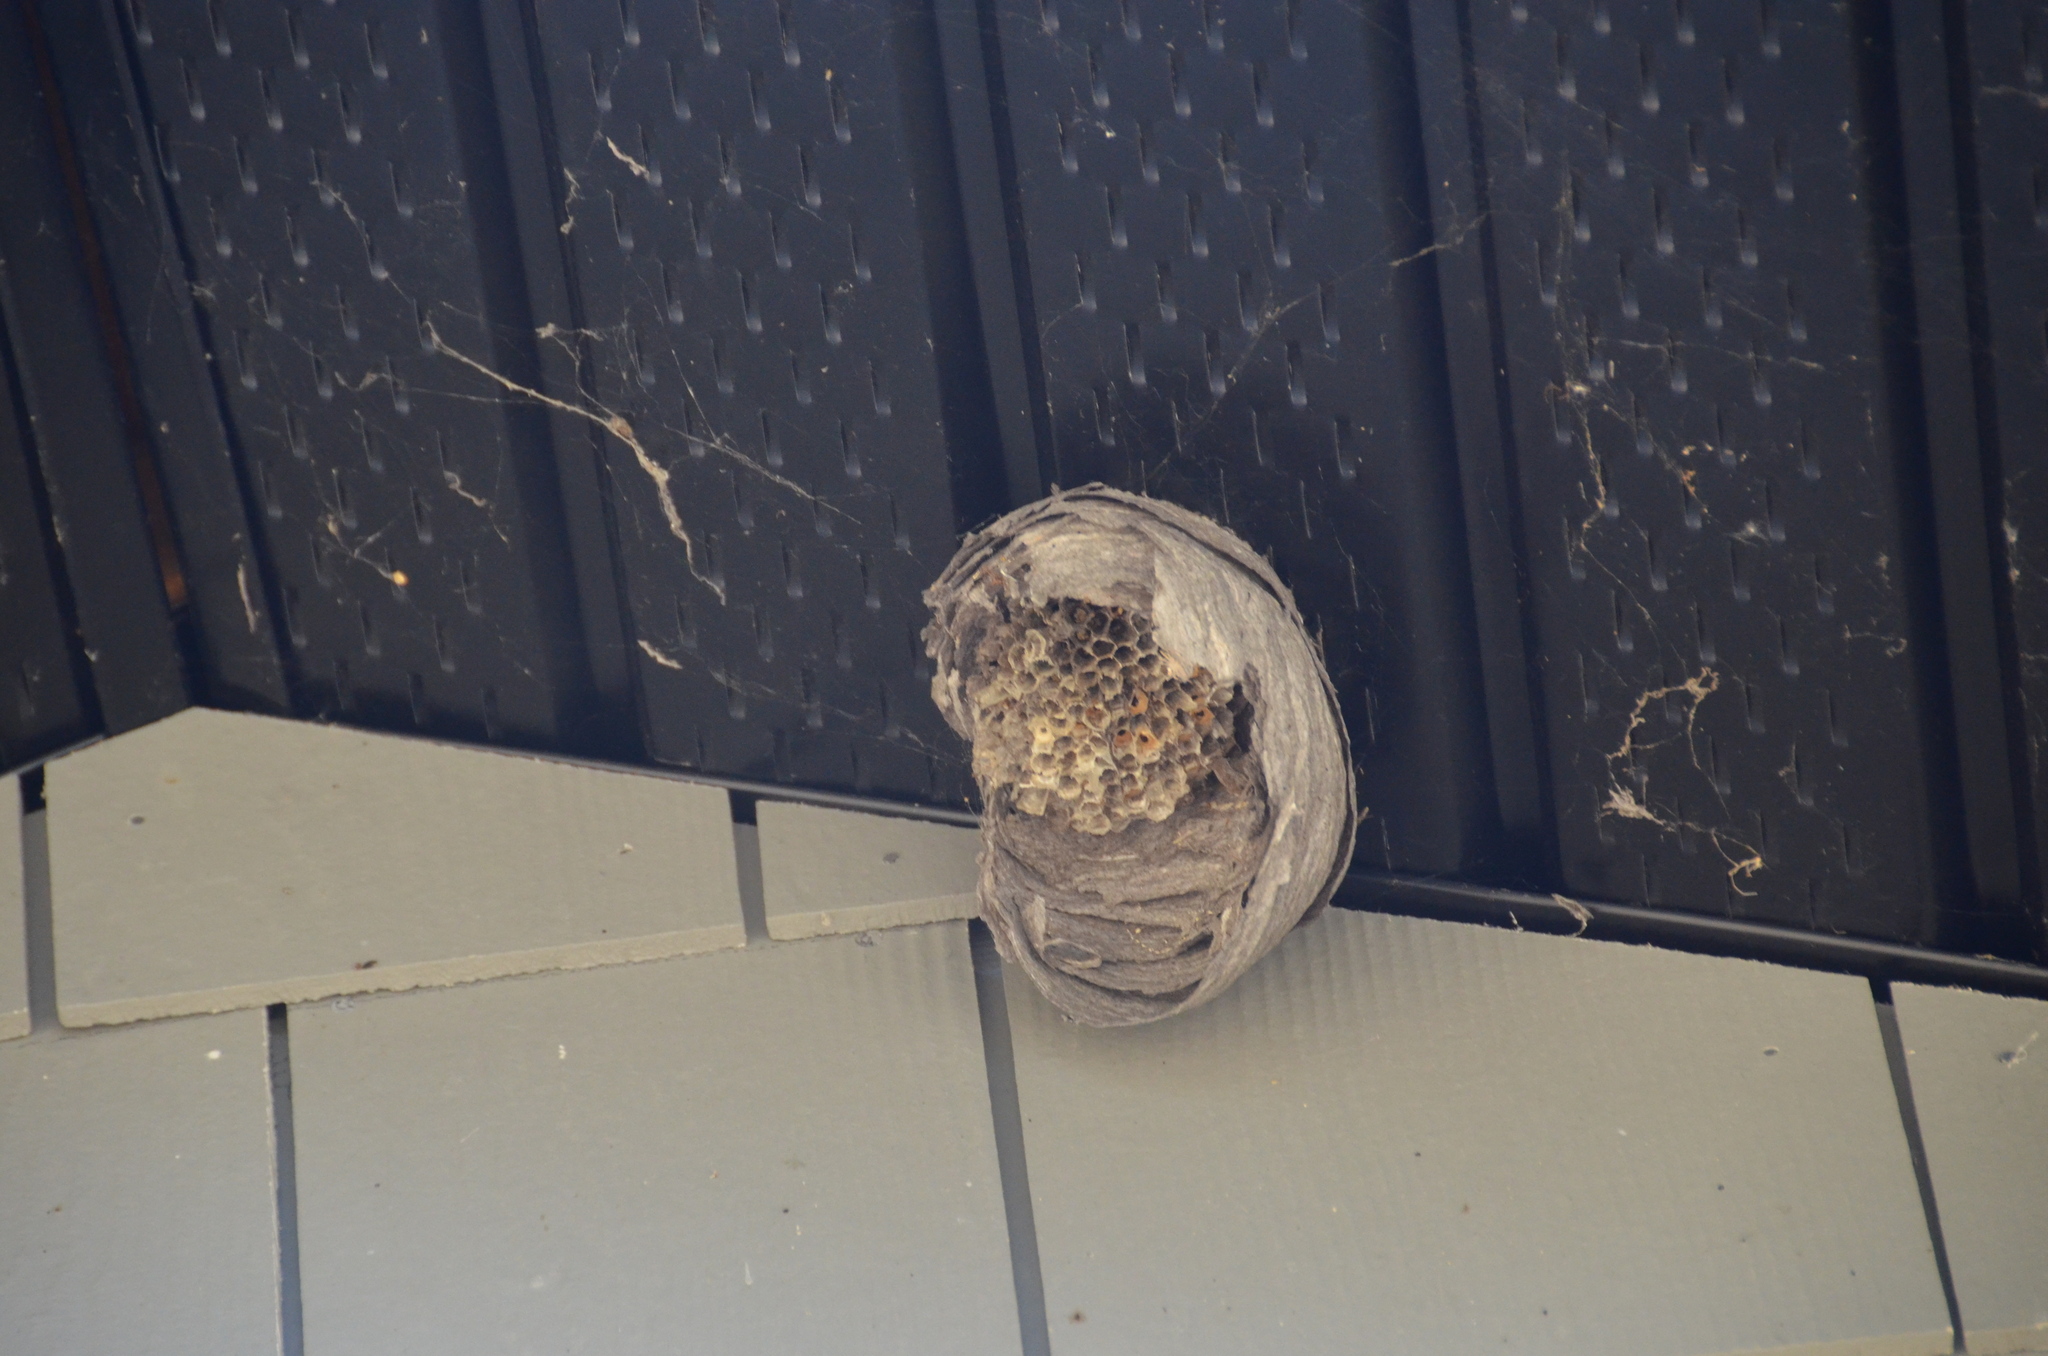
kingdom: Animalia
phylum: Arthropoda
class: Insecta
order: Hymenoptera
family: Vespidae
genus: Dolichovespula
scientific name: Dolichovespula
